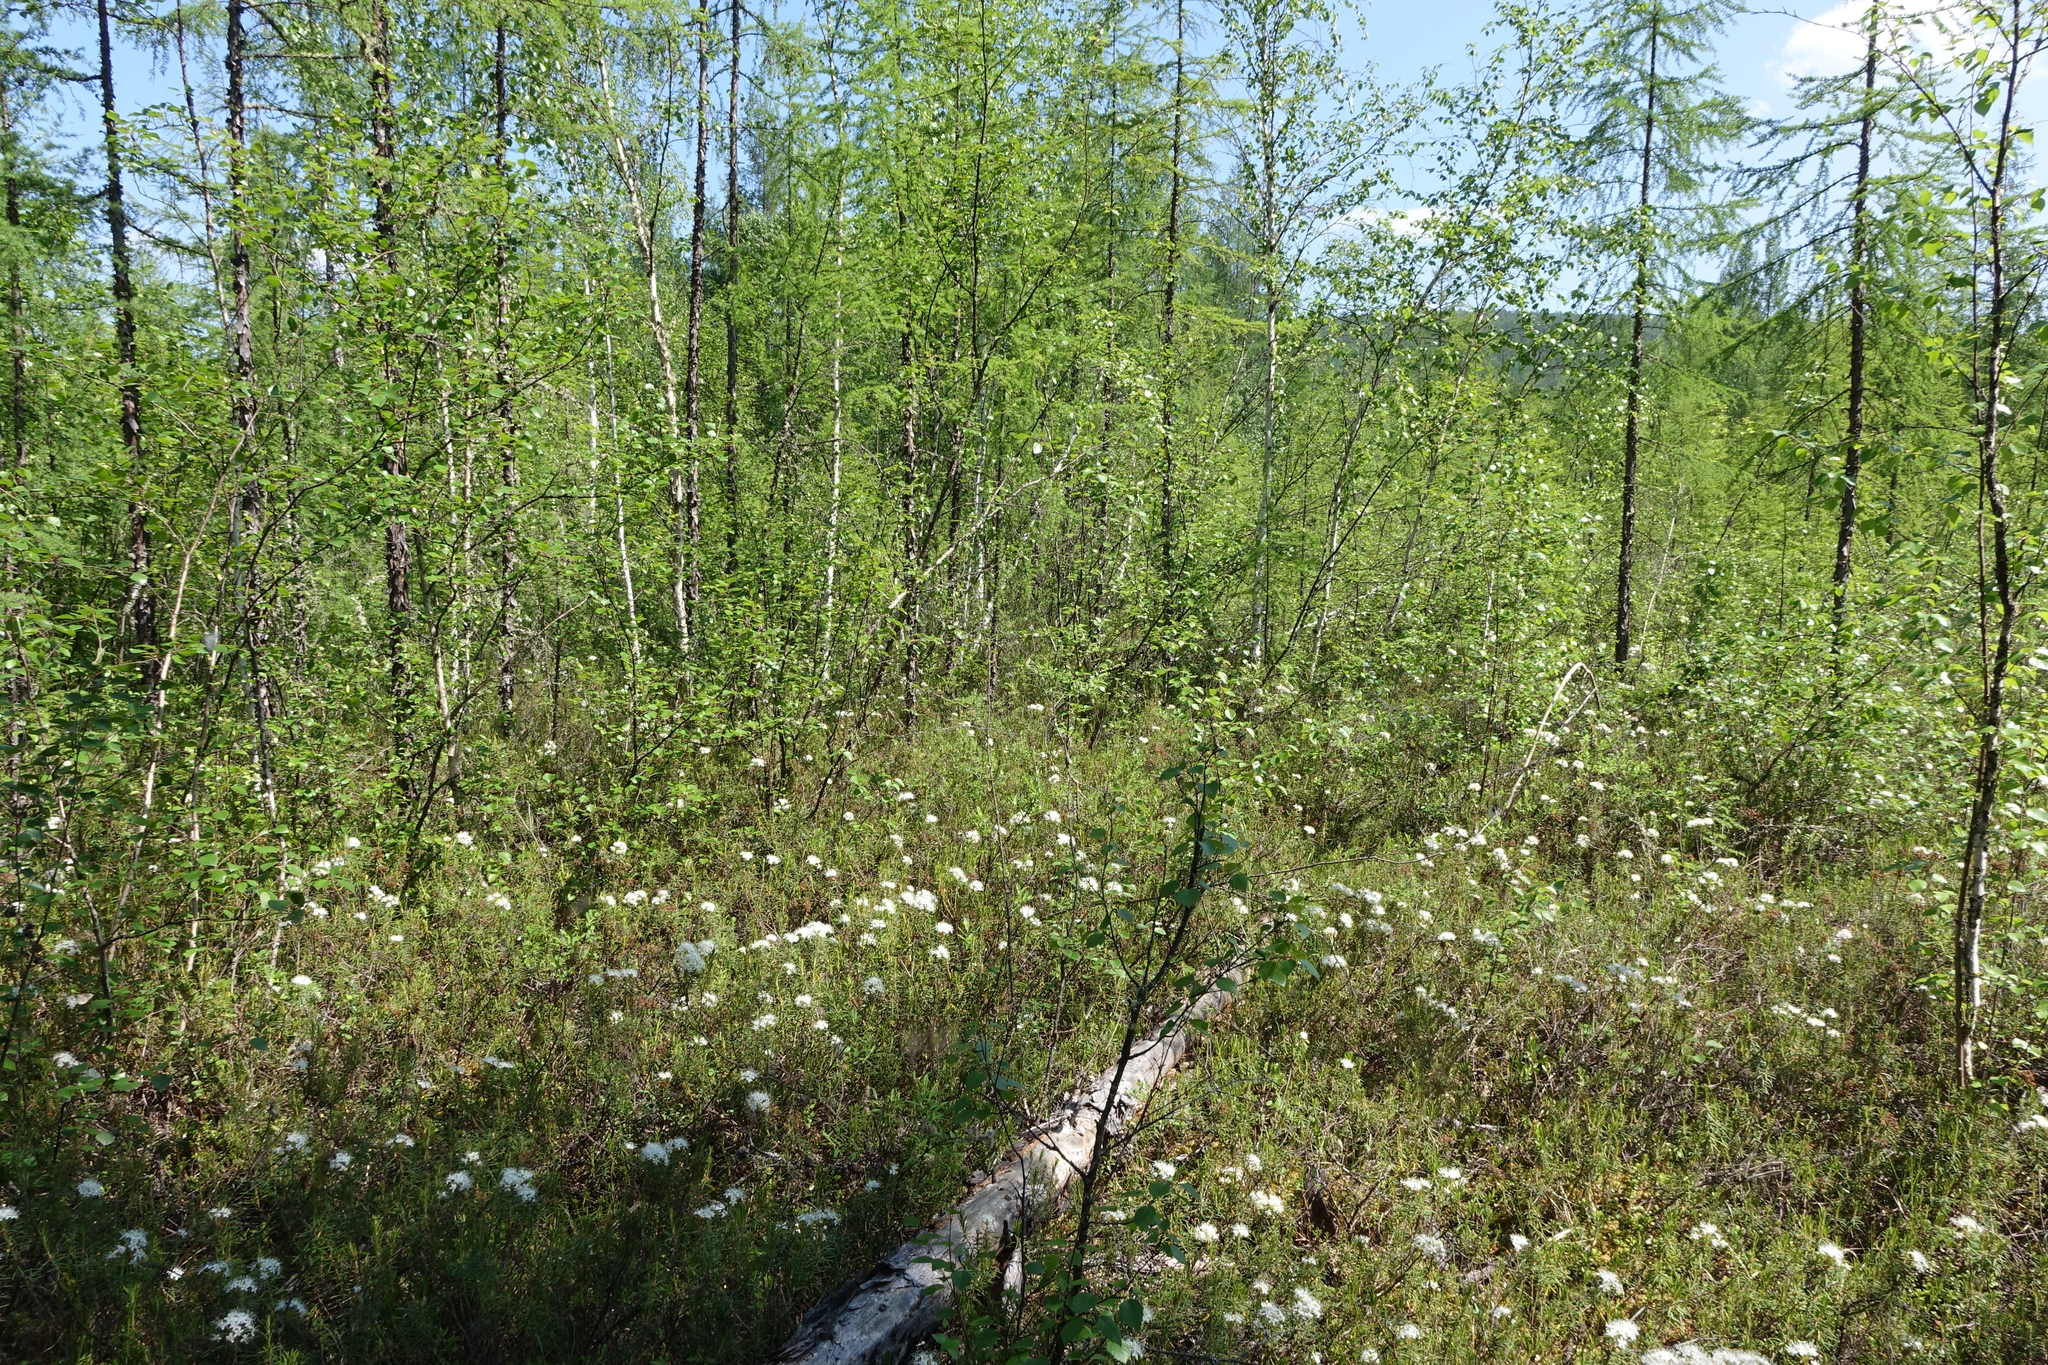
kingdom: Plantae
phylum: Tracheophyta
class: Magnoliopsida
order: Ericales
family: Ericaceae
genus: Rhododendron
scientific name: Rhododendron tomentosum
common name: Marsh labrador tea
